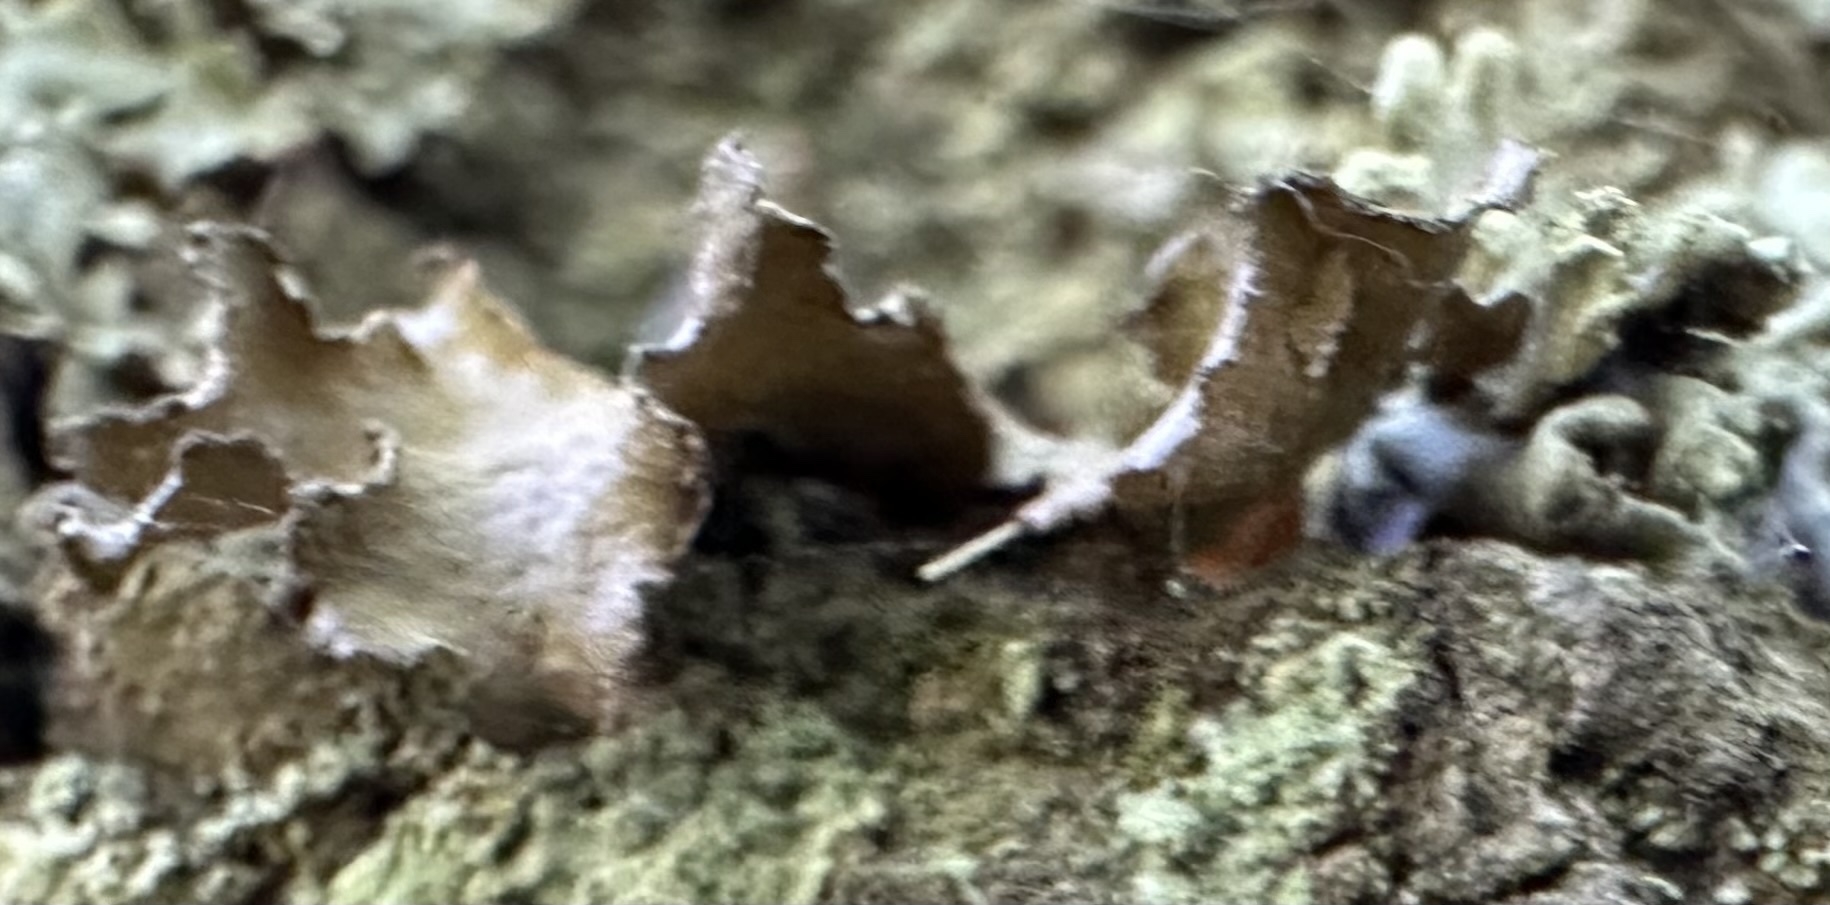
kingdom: Fungi
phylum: Ascomycota
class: Lecanoromycetes
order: Lecanorales
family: Parmeliaceae
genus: Nephromopsis
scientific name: Nephromopsis chlorophylla
